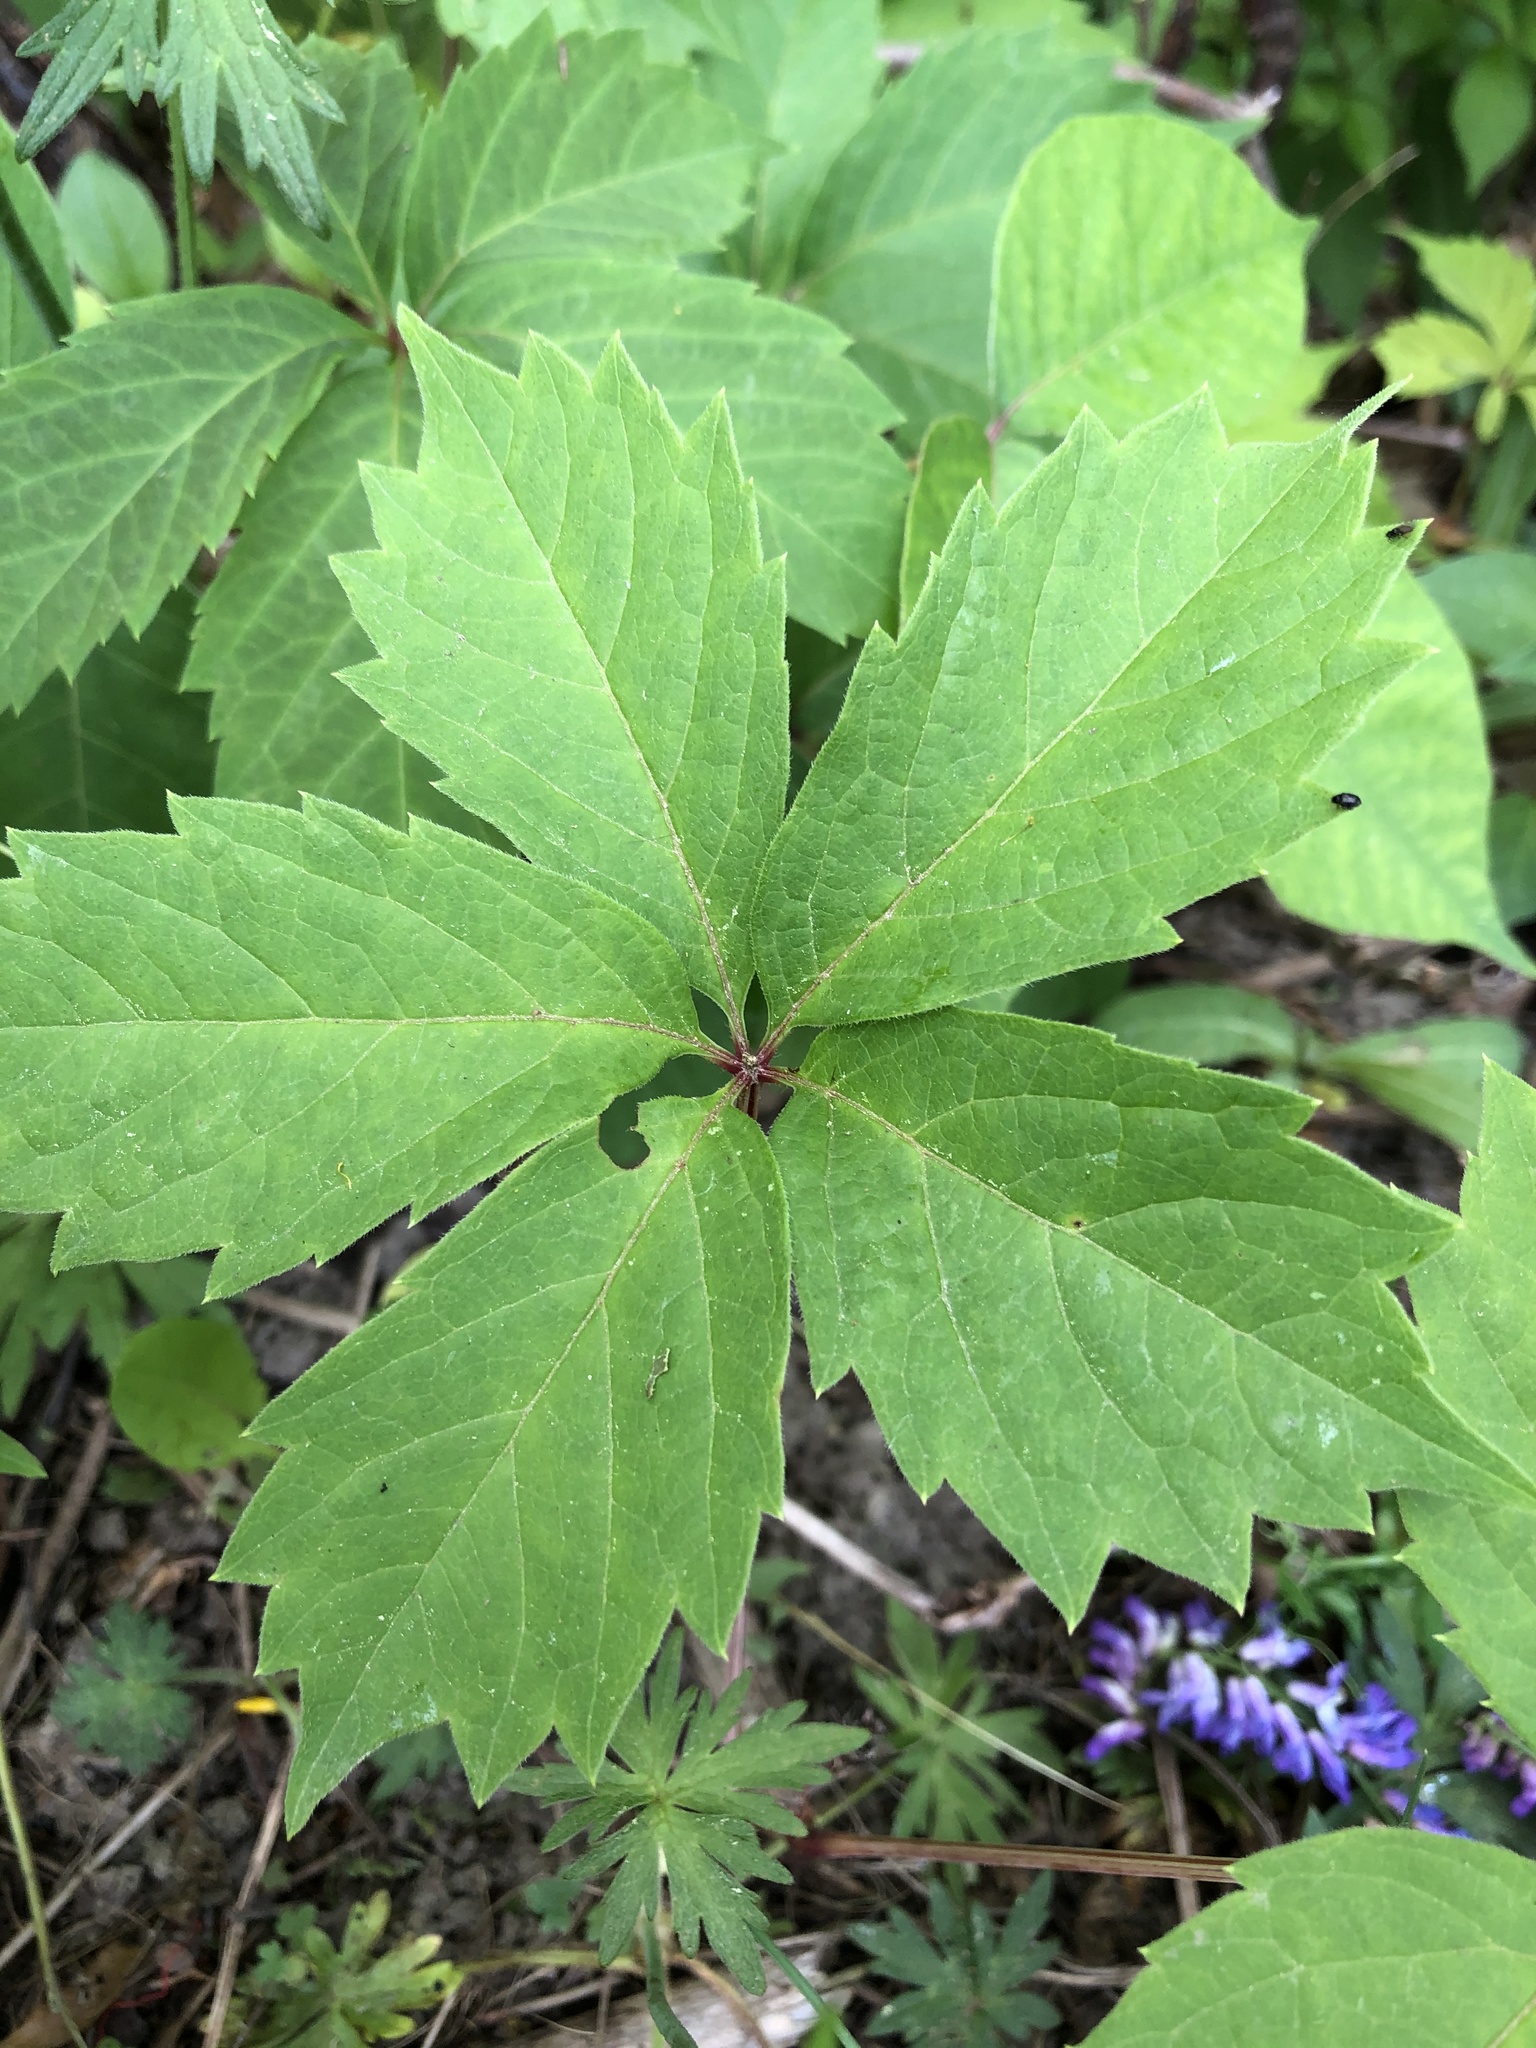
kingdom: Plantae
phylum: Tracheophyta
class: Magnoliopsida
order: Vitales
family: Vitaceae
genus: Parthenocissus
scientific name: Parthenocissus quinquefolia
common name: Virginia-creeper
